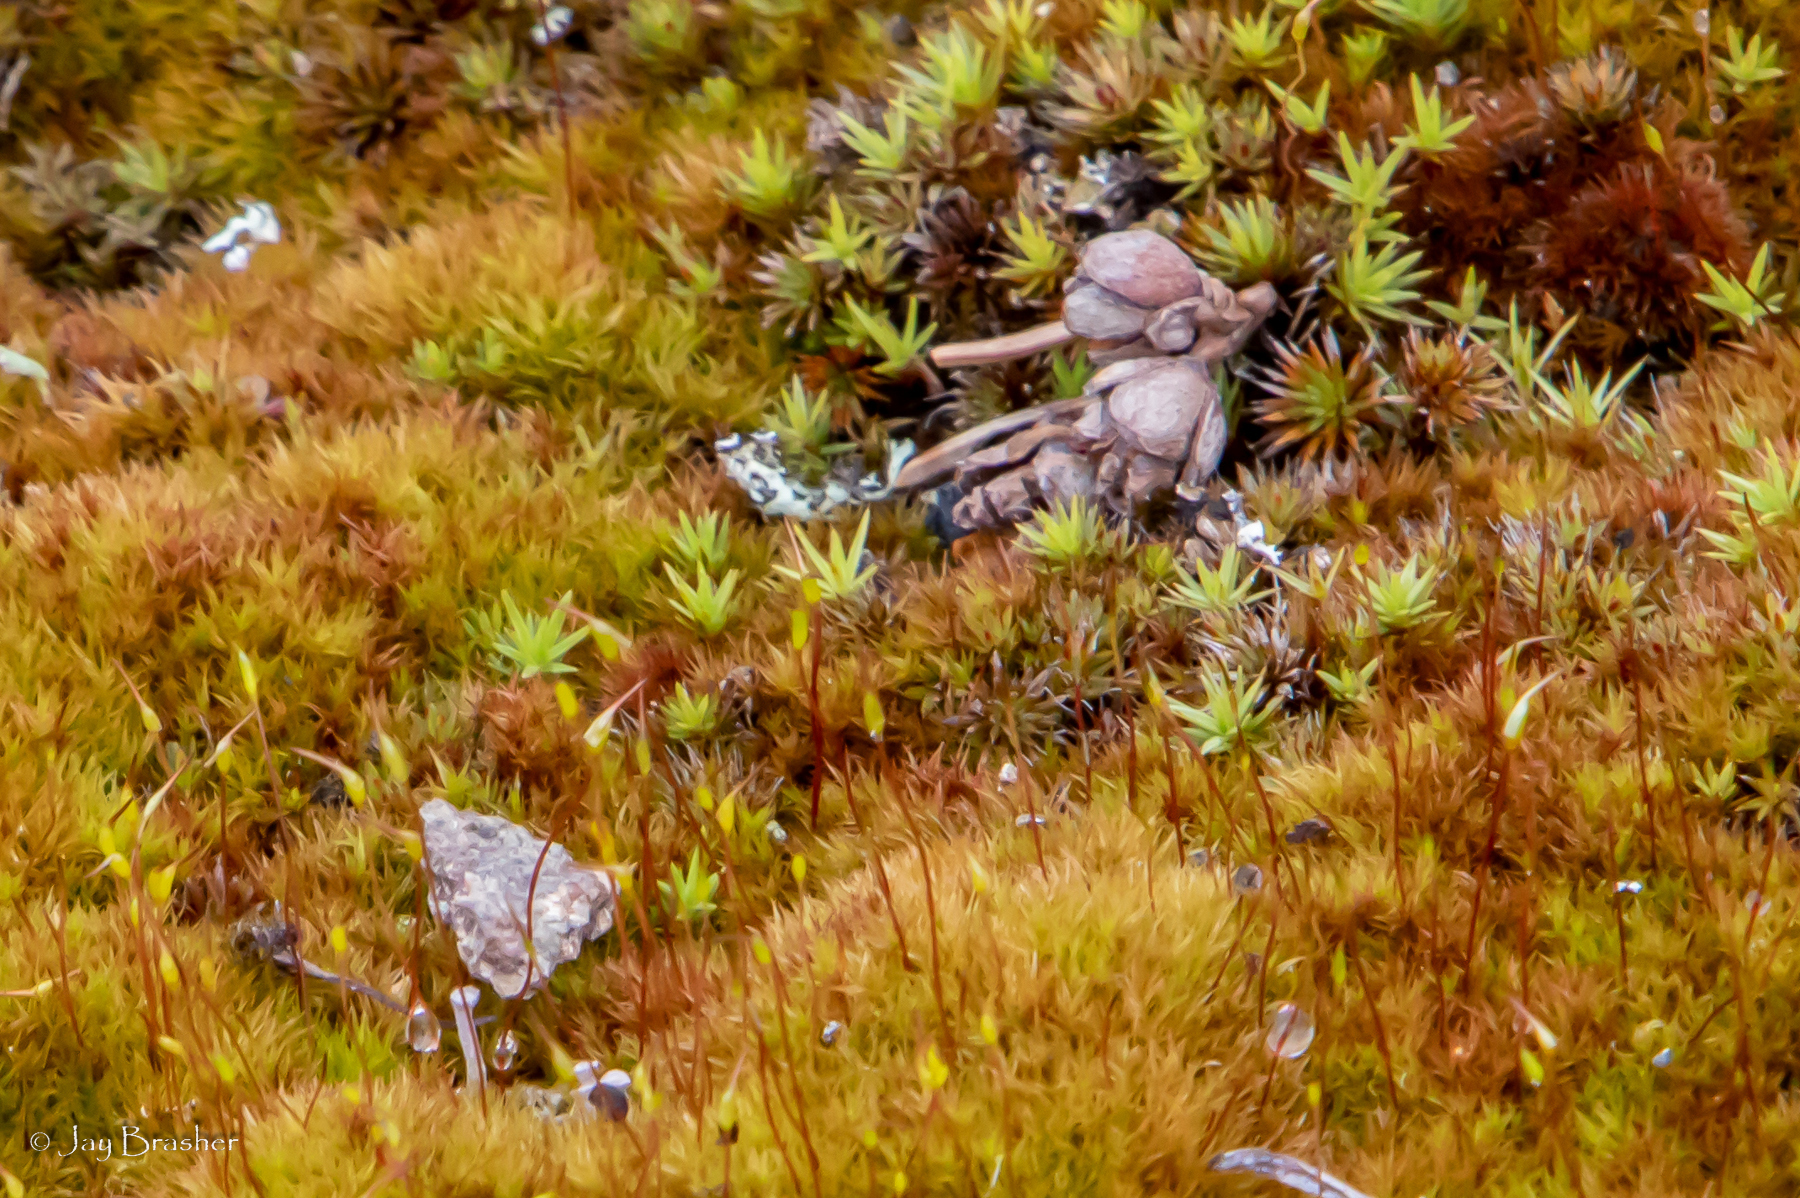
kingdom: Plantae
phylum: Bryophyta
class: Polytrichopsida
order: Polytrichales
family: Polytrichaceae
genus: Polytrichum
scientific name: Polytrichum piliferum
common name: Bristly haircap
